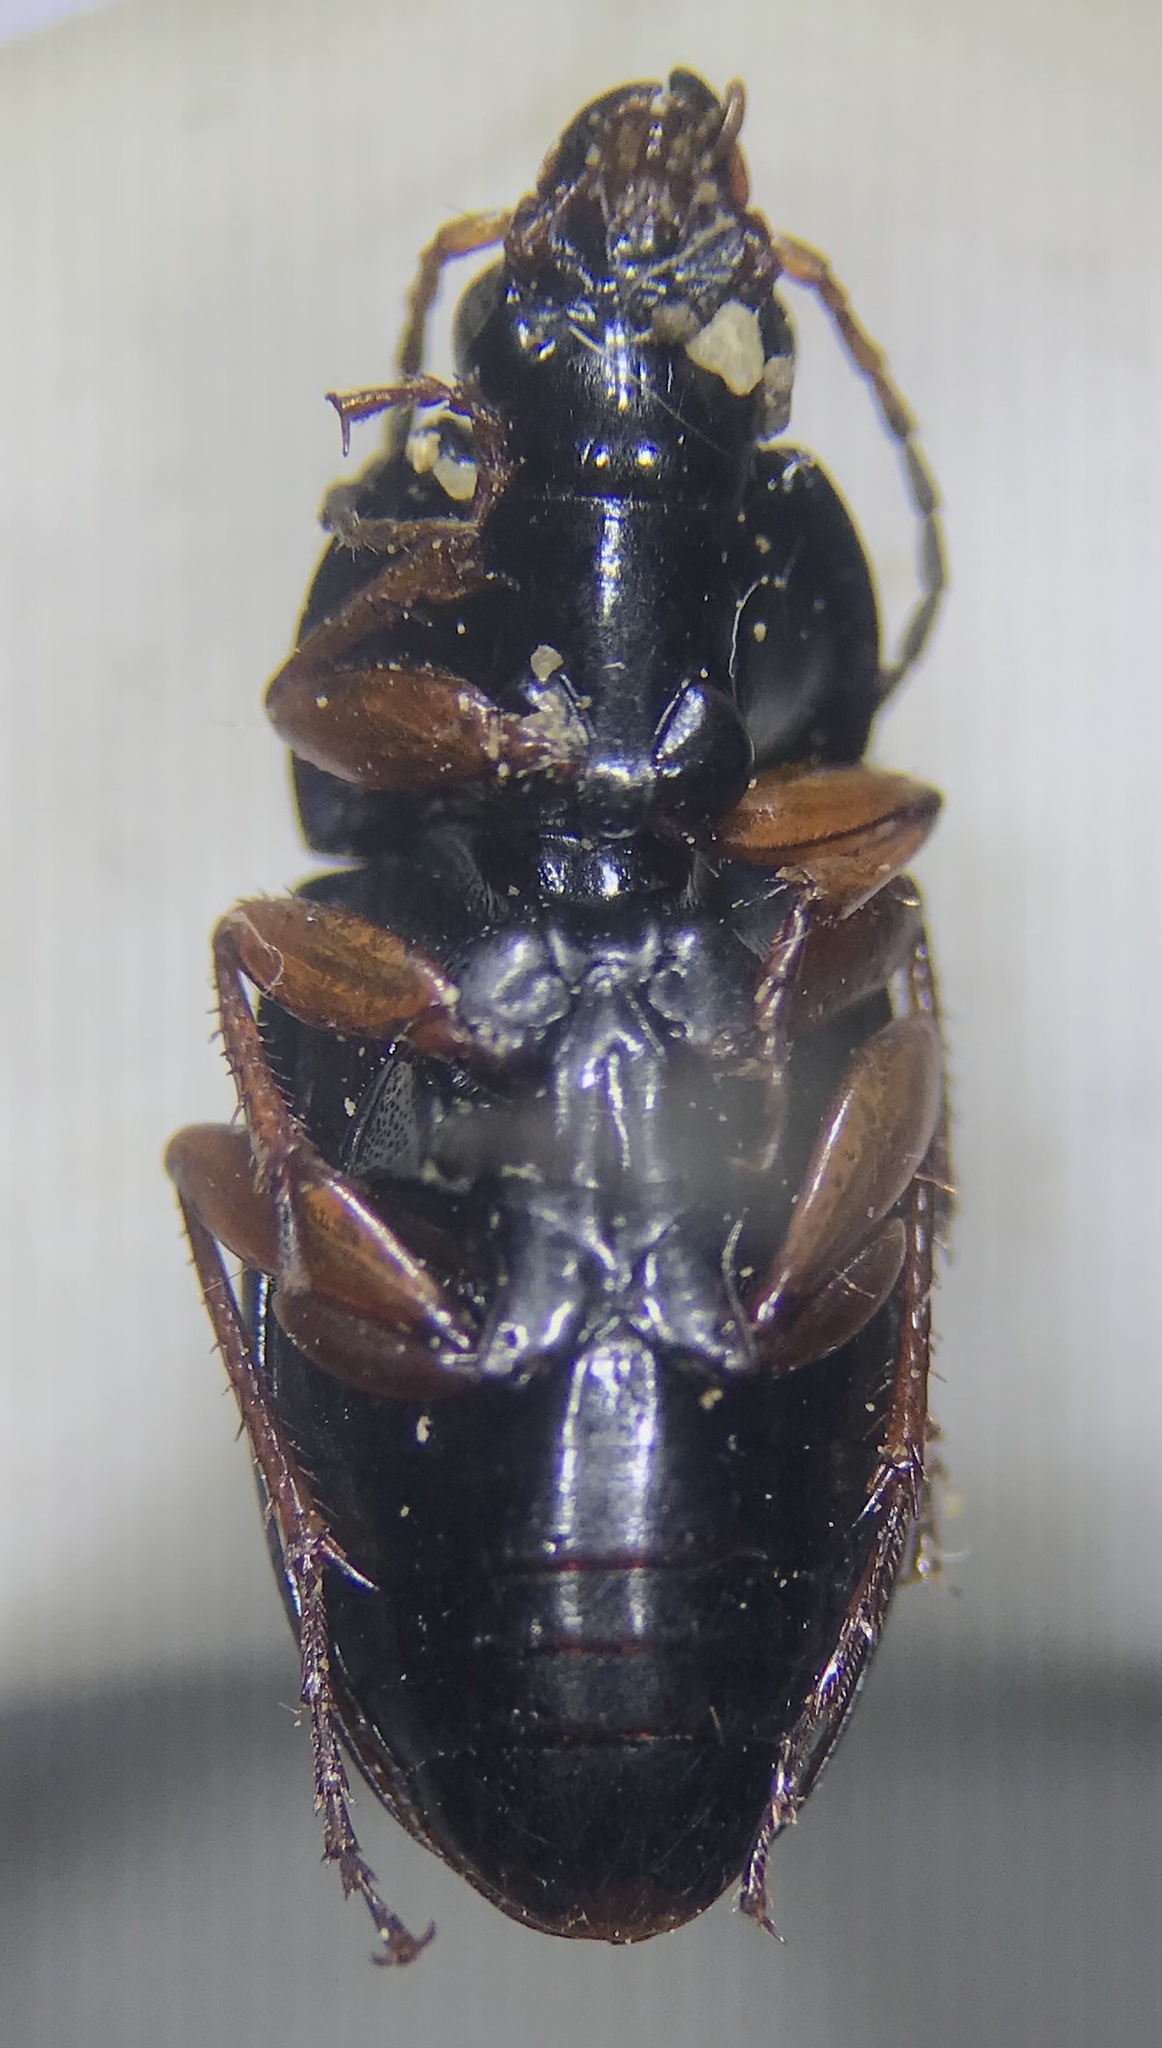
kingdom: Animalia
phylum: Arthropoda
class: Insecta
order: Coleoptera
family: Carabidae
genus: Poecilus
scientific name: Poecilus lucublandus
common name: Woodland ground beetle
